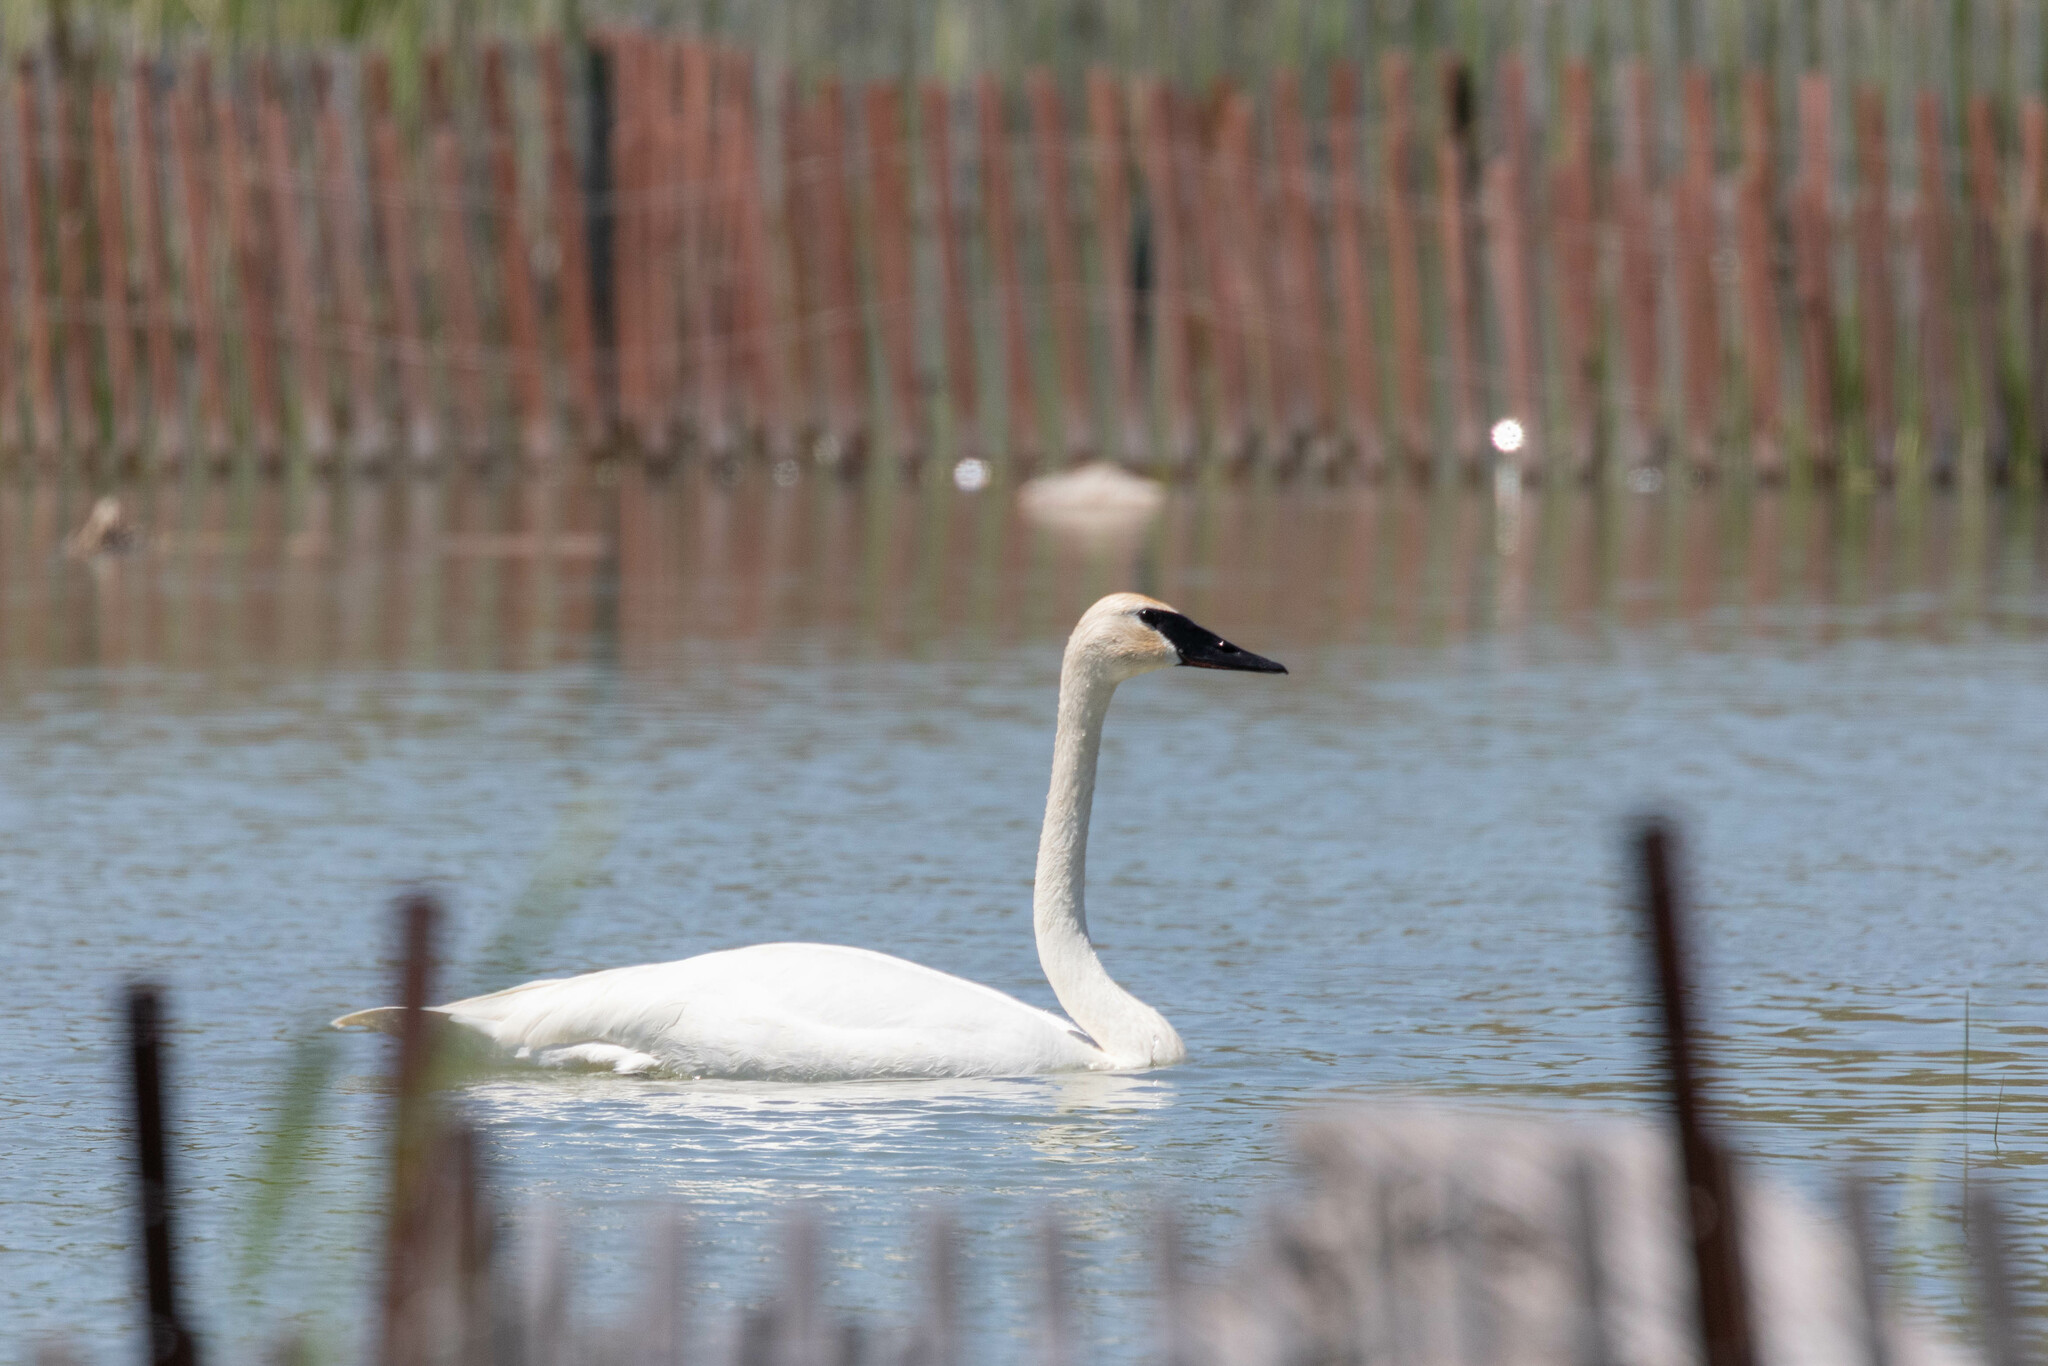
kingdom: Animalia
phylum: Chordata
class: Aves
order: Anseriformes
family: Anatidae
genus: Cygnus
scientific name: Cygnus buccinator
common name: Trumpeter swan
